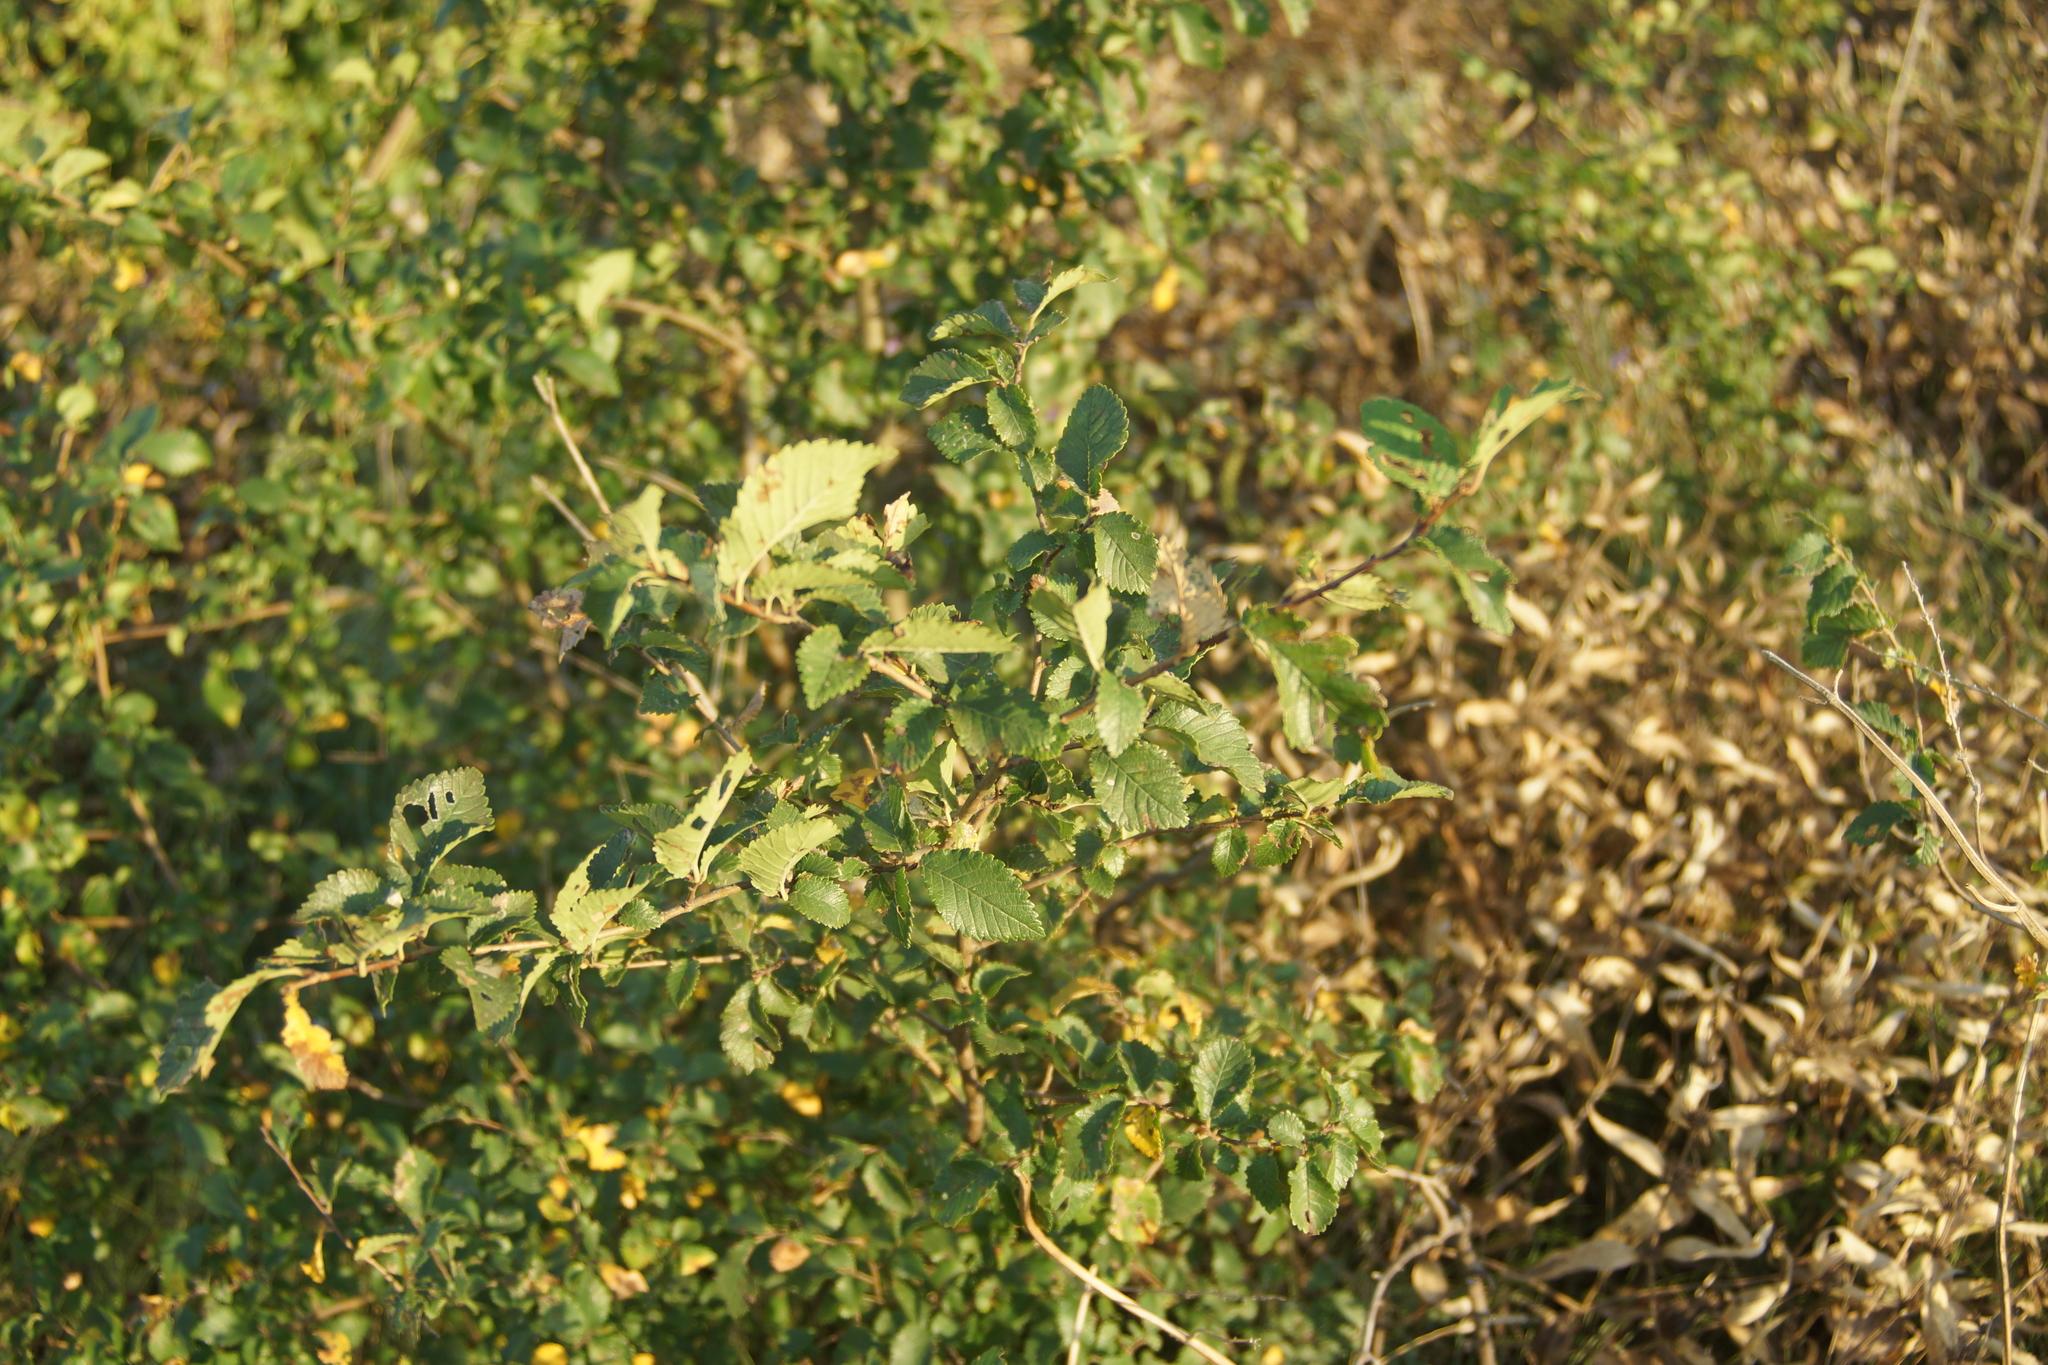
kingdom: Plantae
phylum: Tracheophyta
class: Magnoliopsida
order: Rosales
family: Ulmaceae
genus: Ulmus
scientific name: Ulmus minor
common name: Small-leaved elm
